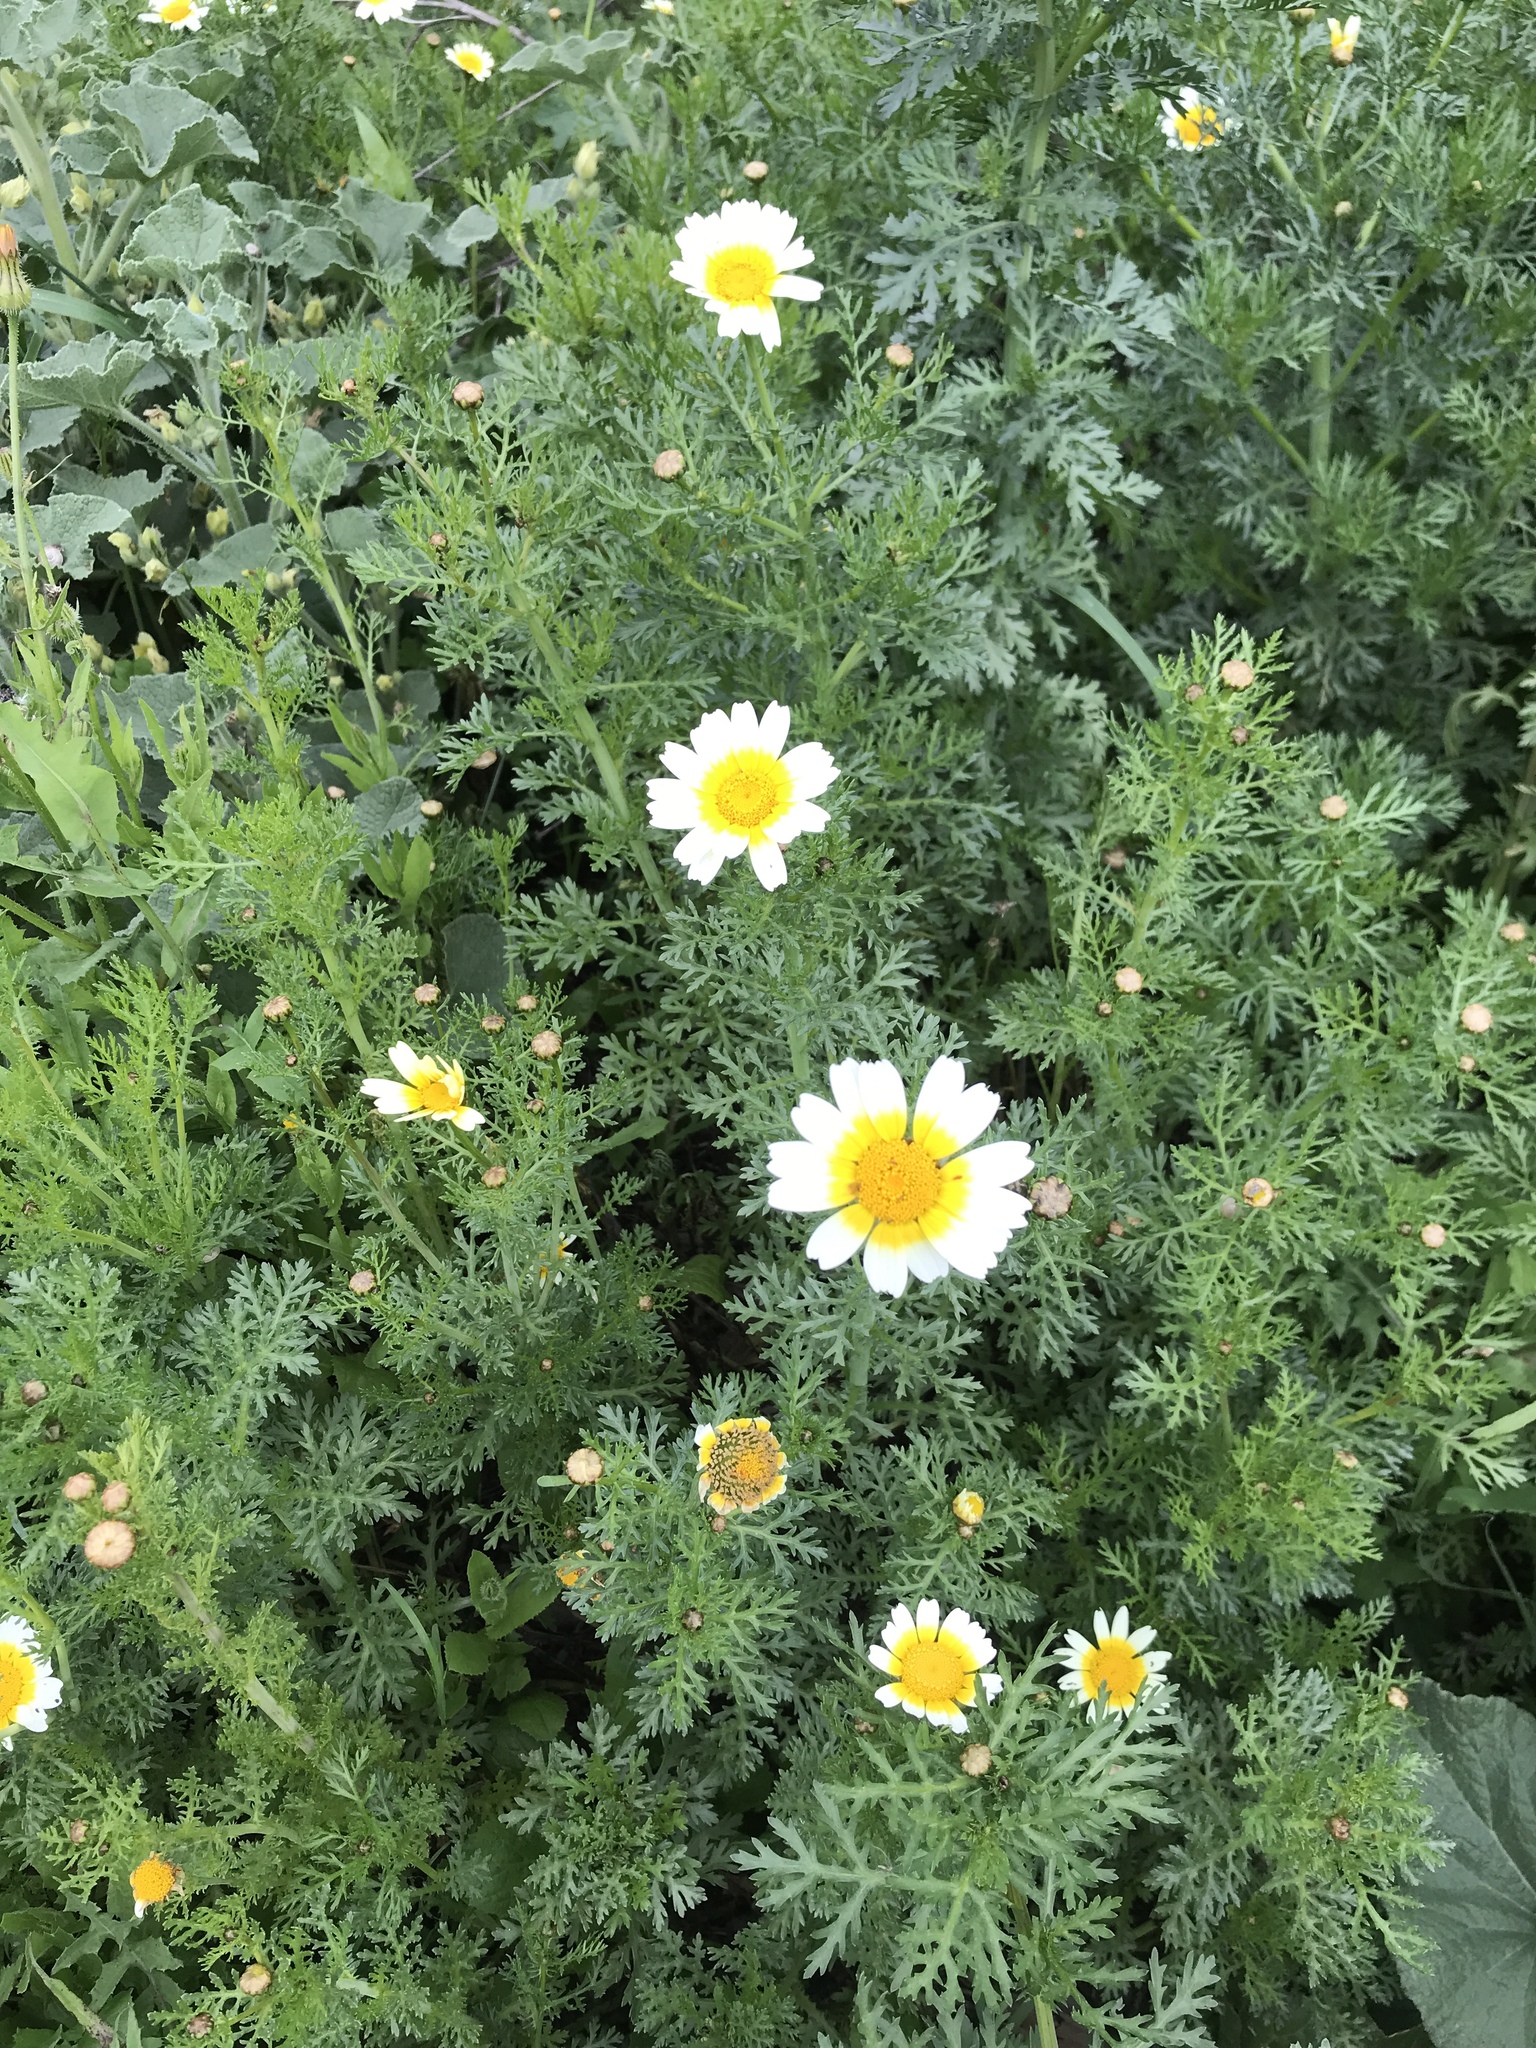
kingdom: Plantae
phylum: Tracheophyta
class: Magnoliopsida
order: Asterales
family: Asteraceae
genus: Glebionis
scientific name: Glebionis coronaria
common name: Crowndaisy
